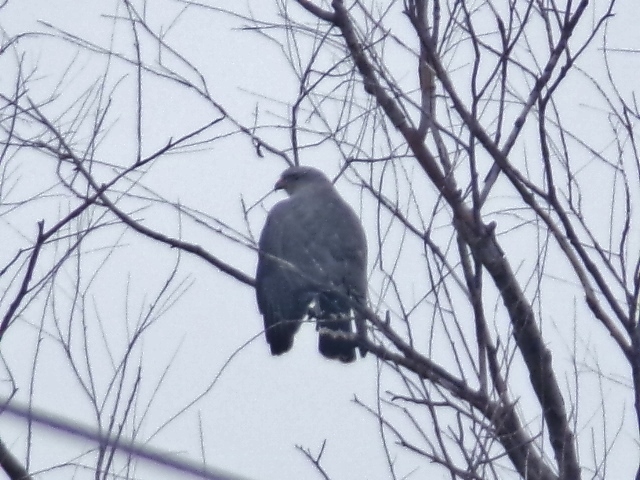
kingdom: Animalia
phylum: Chordata
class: Aves
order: Accipitriformes
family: Accipitridae
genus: Buteo
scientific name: Buteo nitidus
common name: Grey-lined hawk
